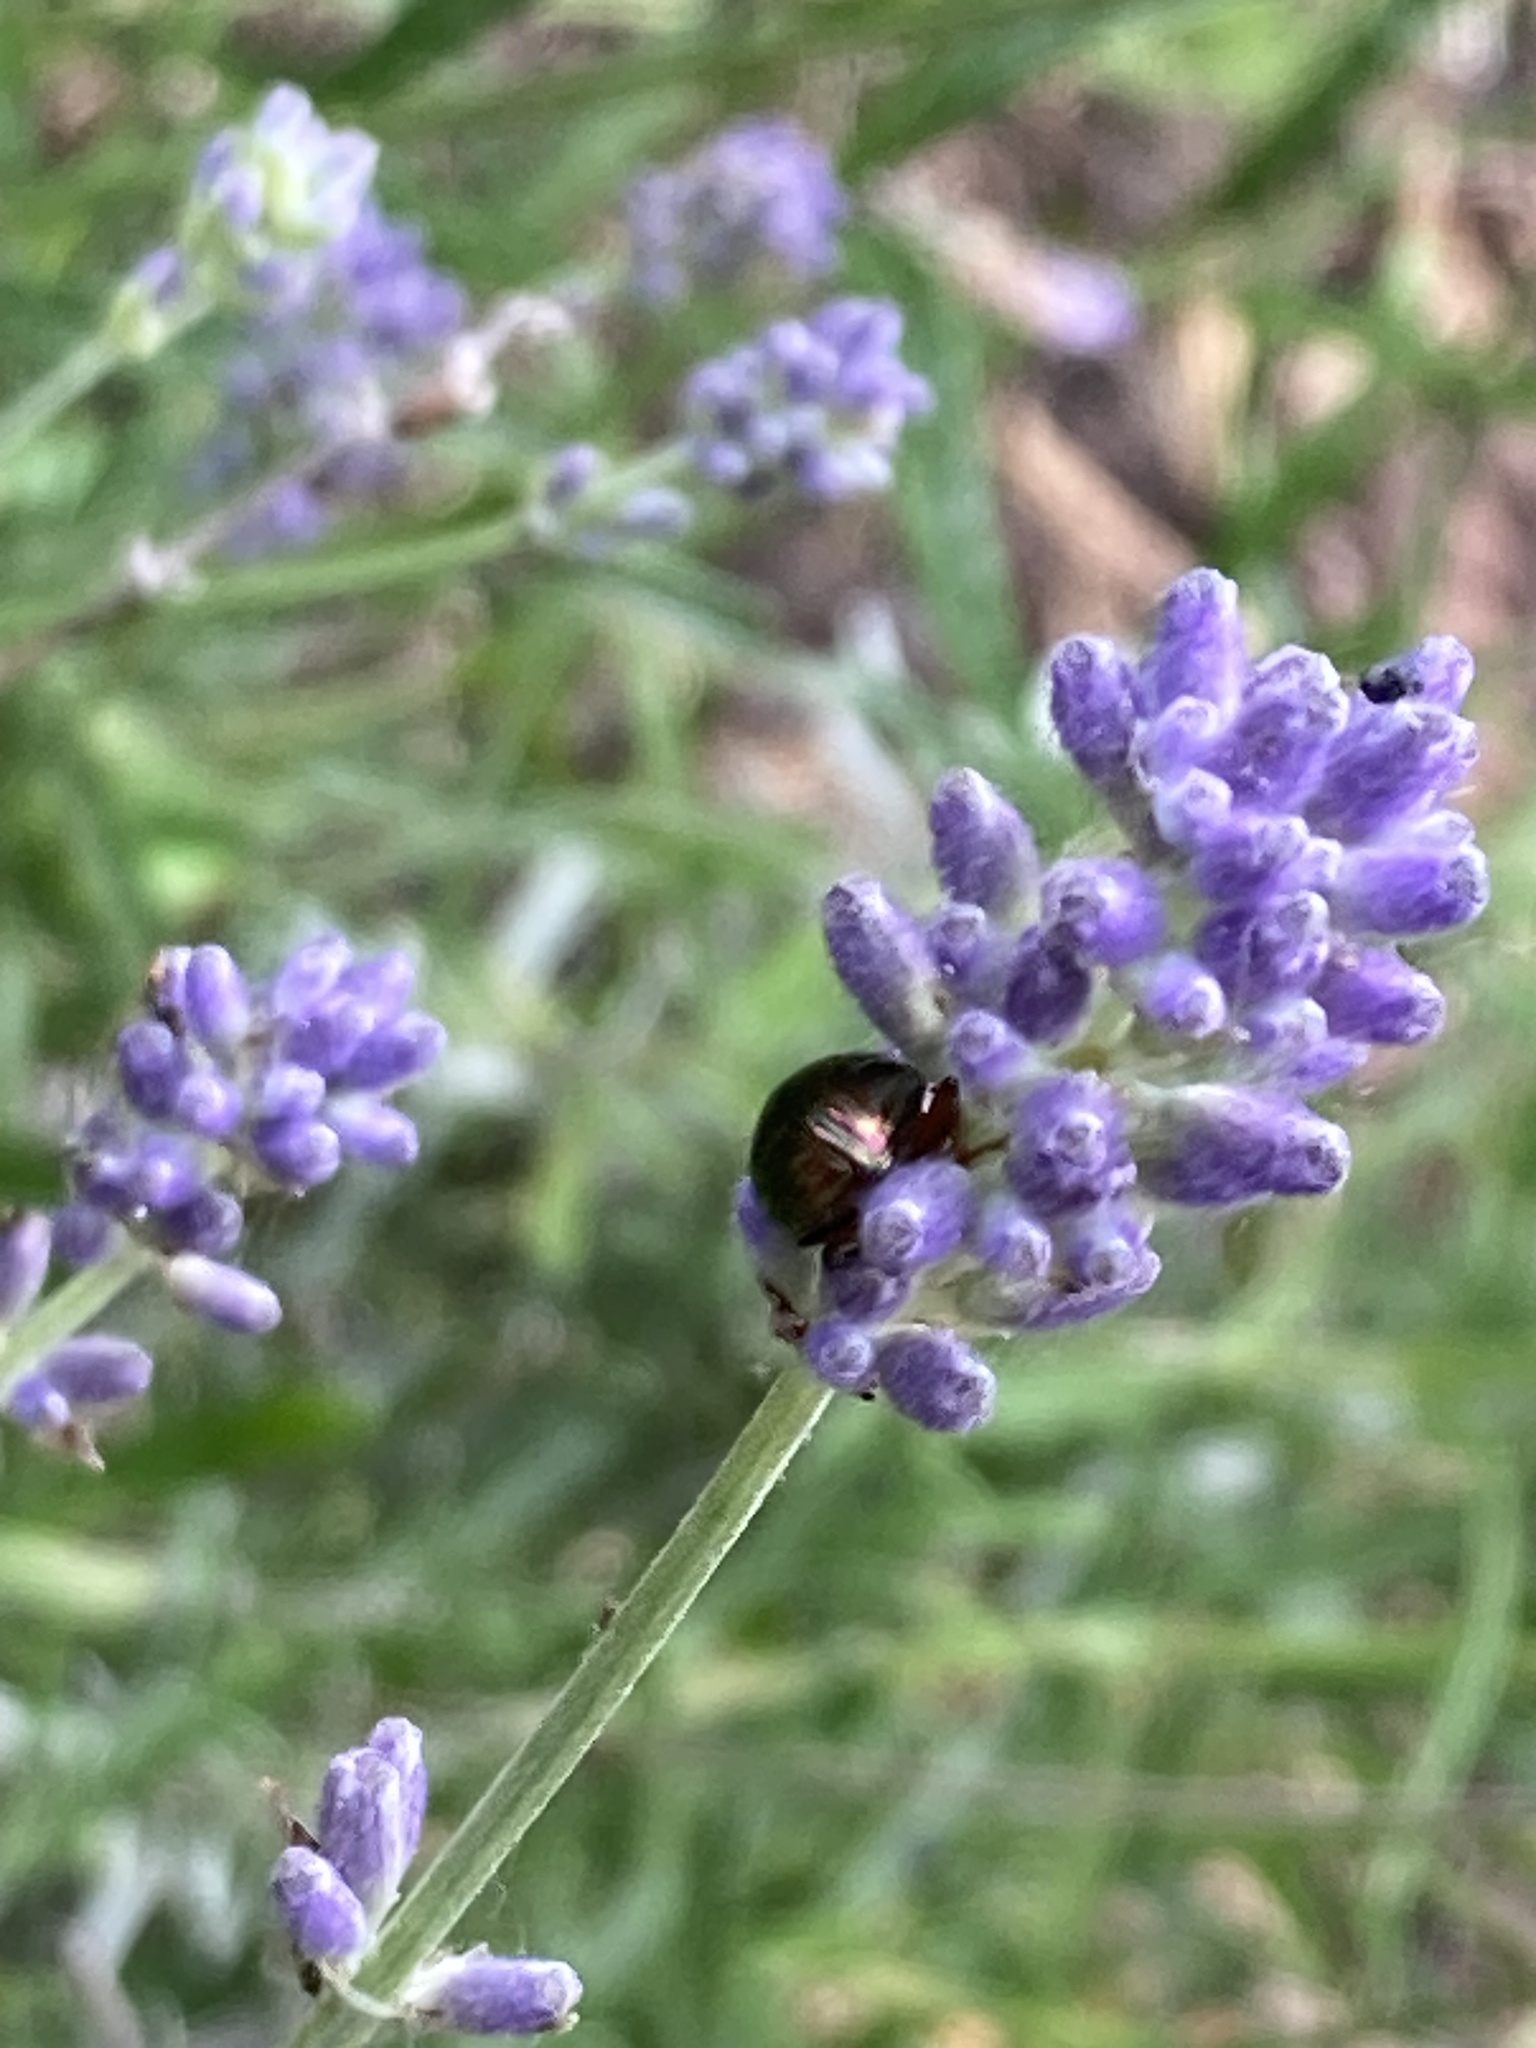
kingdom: Animalia
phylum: Arthropoda
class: Insecta
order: Coleoptera
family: Chrysomelidae
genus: Chrysolina
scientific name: Chrysolina americana
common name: Rosemary beetle
